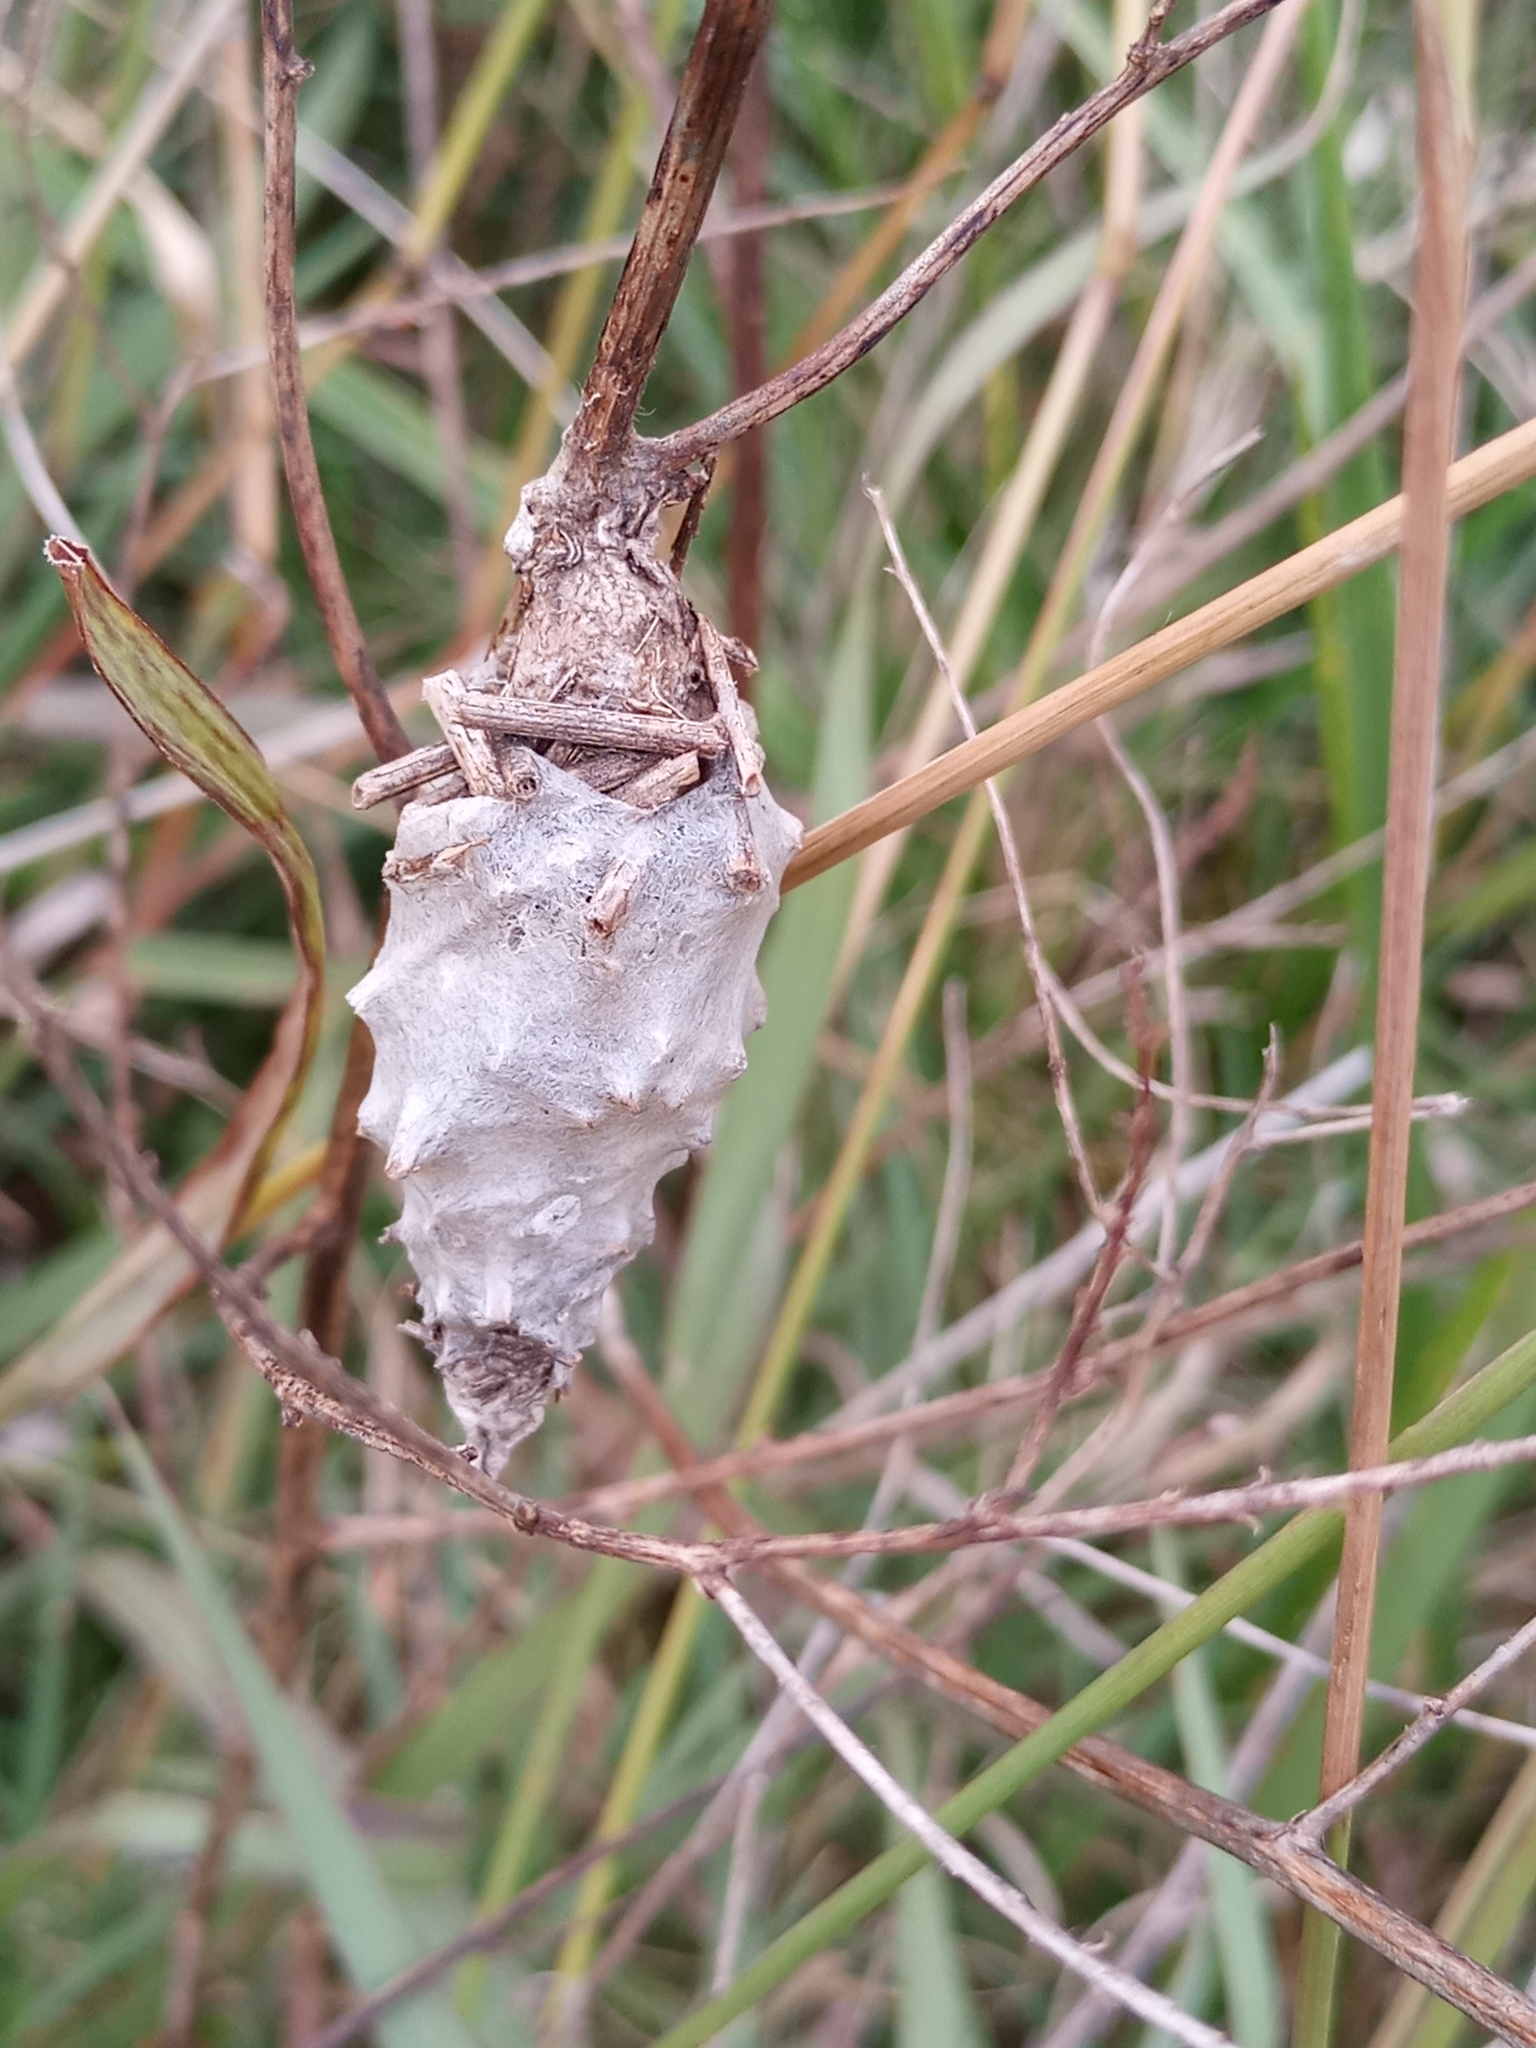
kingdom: Animalia
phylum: Arthropoda
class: Insecta
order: Lepidoptera
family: Psychidae
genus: Oiketicus
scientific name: Oiketicus
